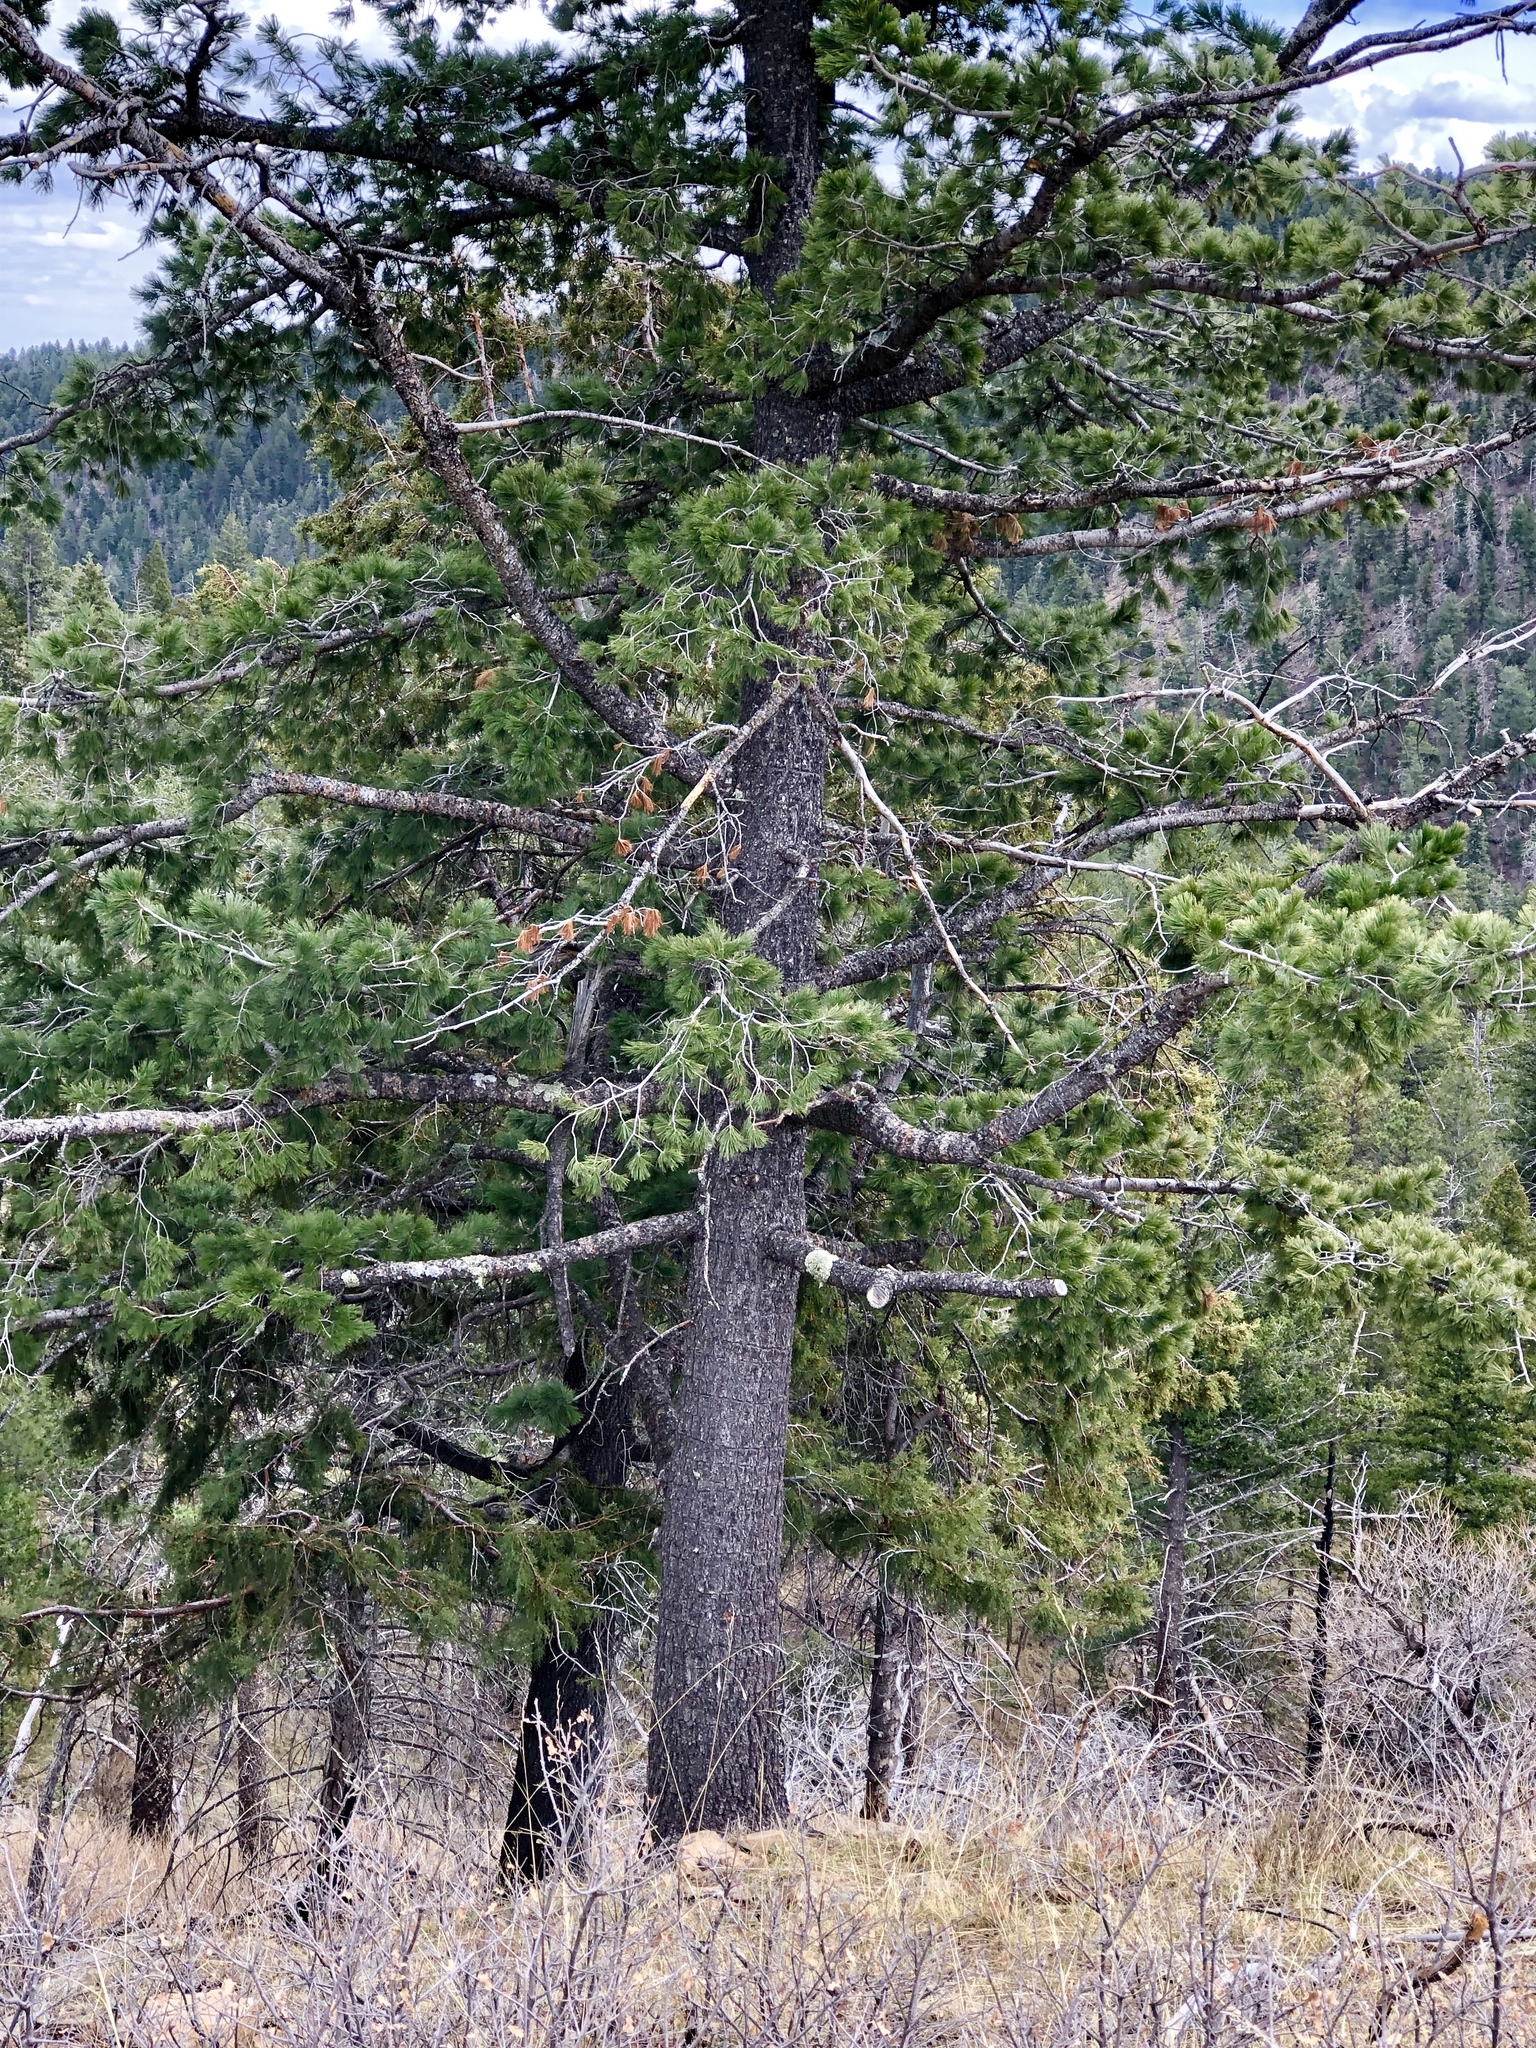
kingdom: Plantae
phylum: Tracheophyta
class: Pinopsida
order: Pinales
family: Pinaceae
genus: Pinus
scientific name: Pinus strobiformis
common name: Southwestern white pine
